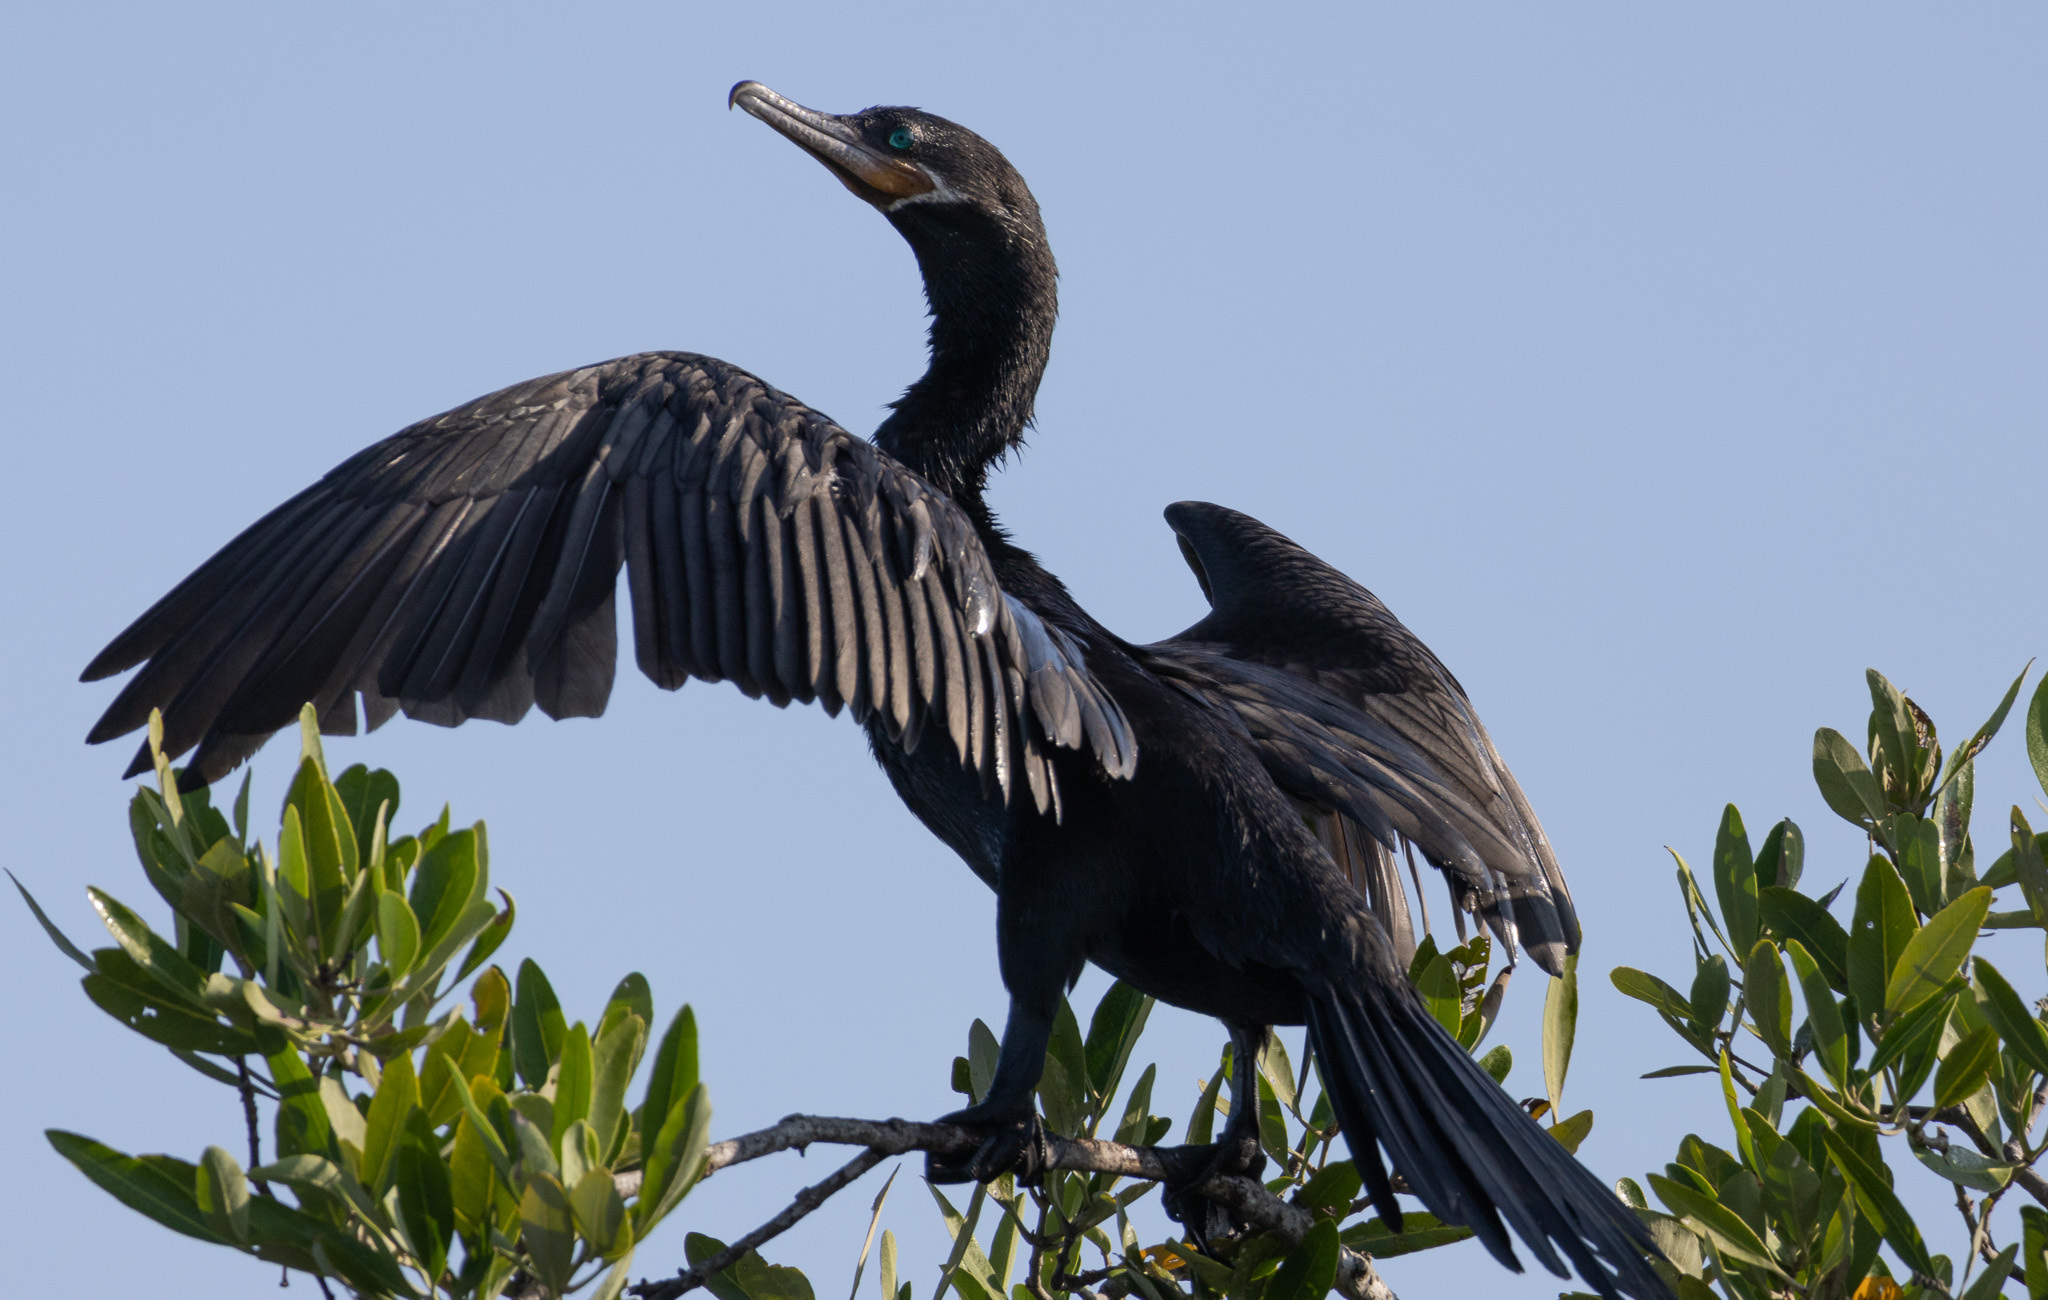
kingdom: Animalia
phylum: Chordata
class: Aves
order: Suliformes
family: Phalacrocoracidae
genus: Phalacrocorax
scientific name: Phalacrocorax brasilianus
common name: Neotropic cormorant
